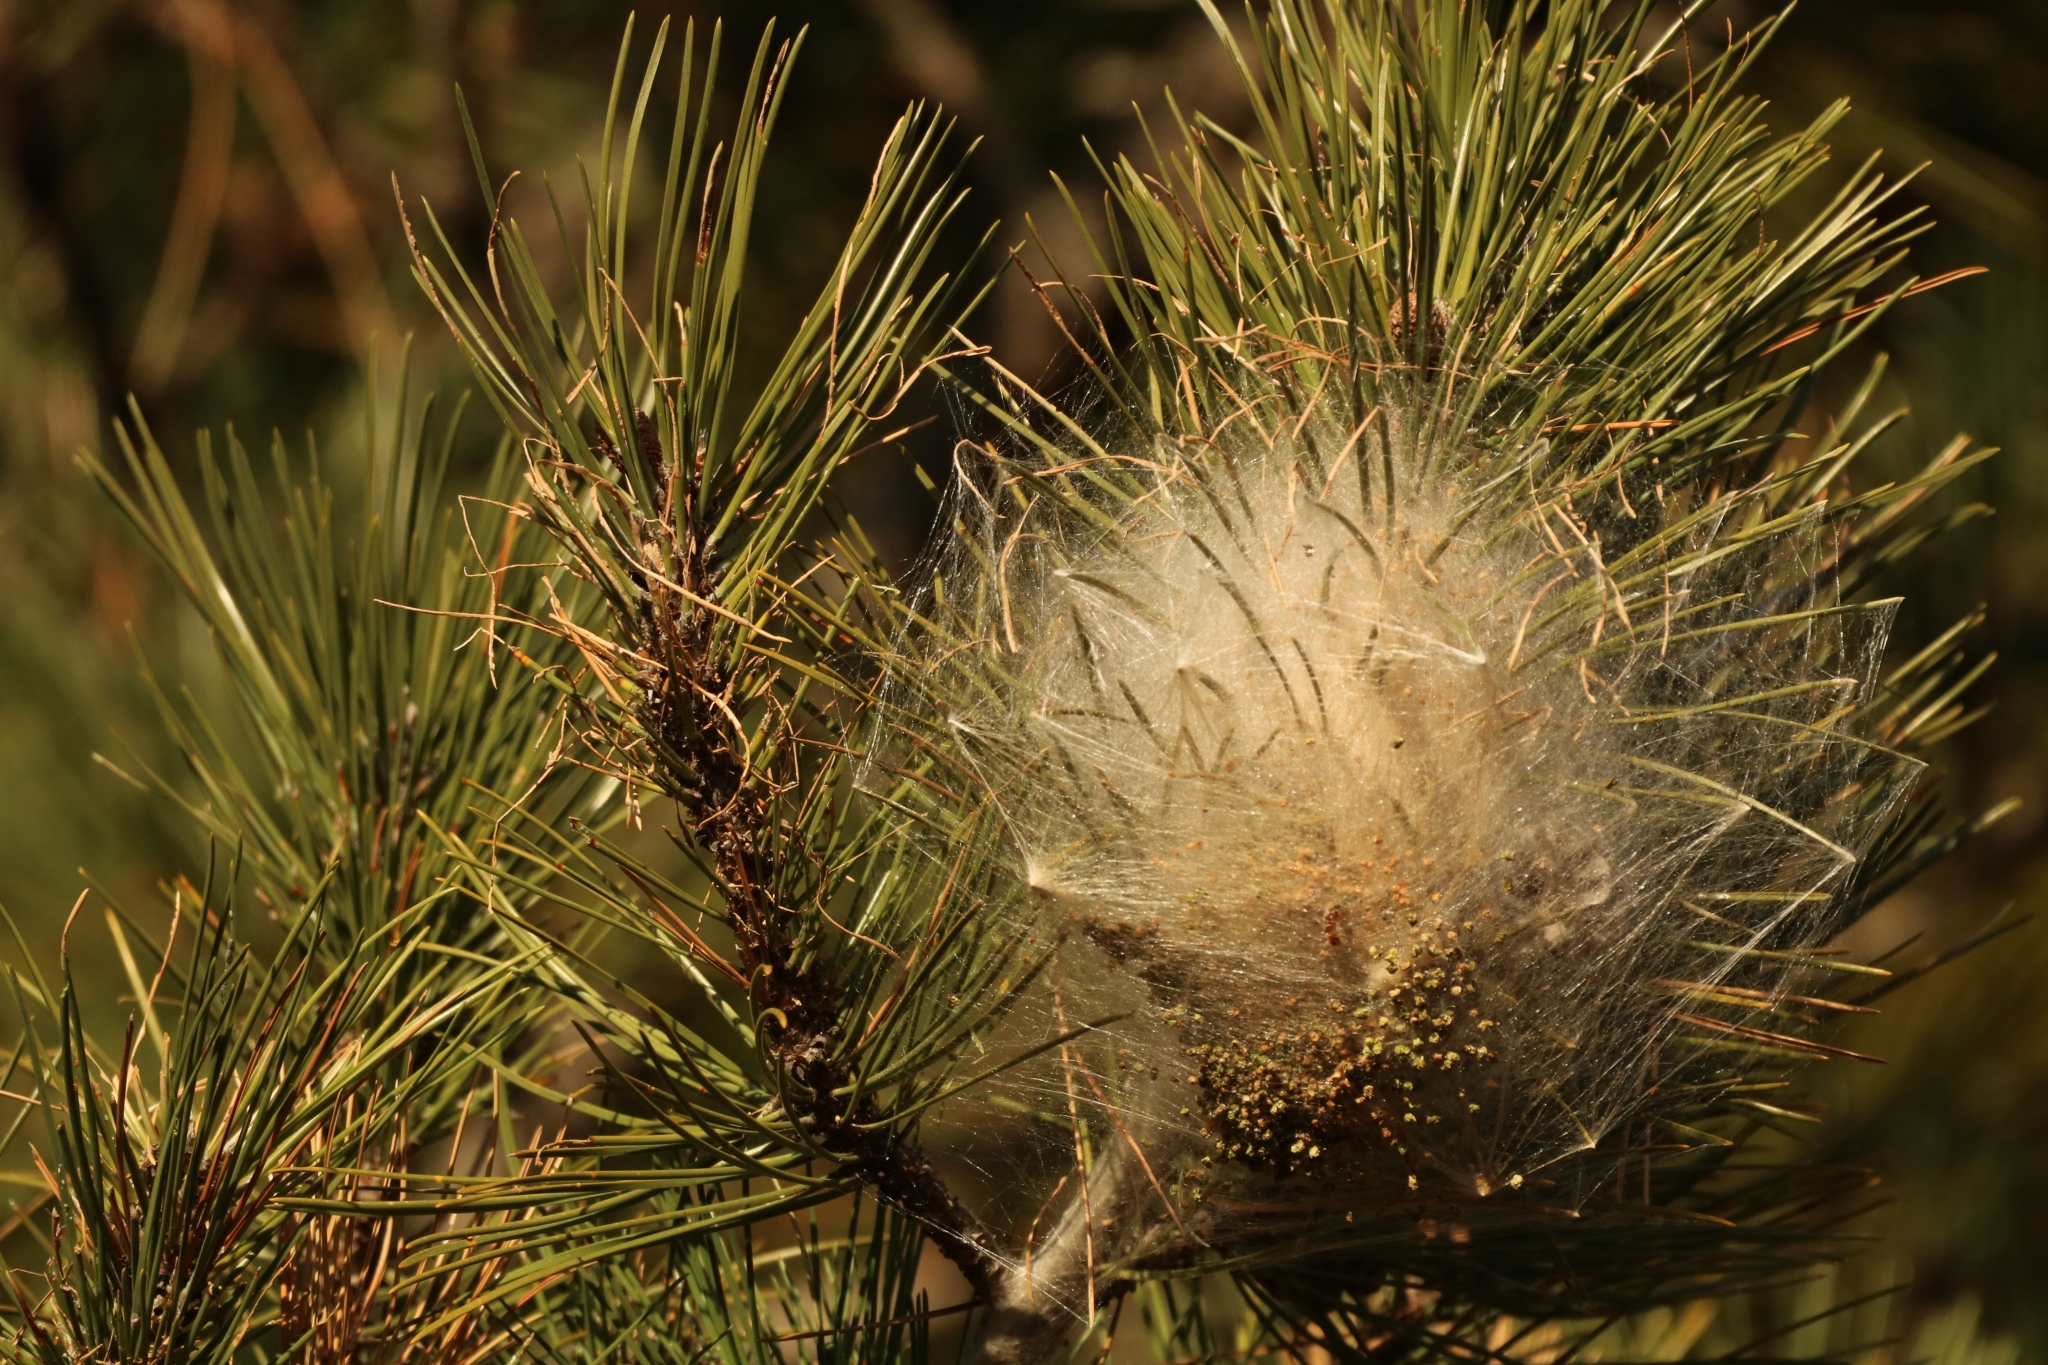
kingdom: Animalia
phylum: Arthropoda
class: Insecta
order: Lepidoptera
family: Notodontidae
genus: Thaumetopoea
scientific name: Thaumetopoea pityocampa
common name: Pine processionary
